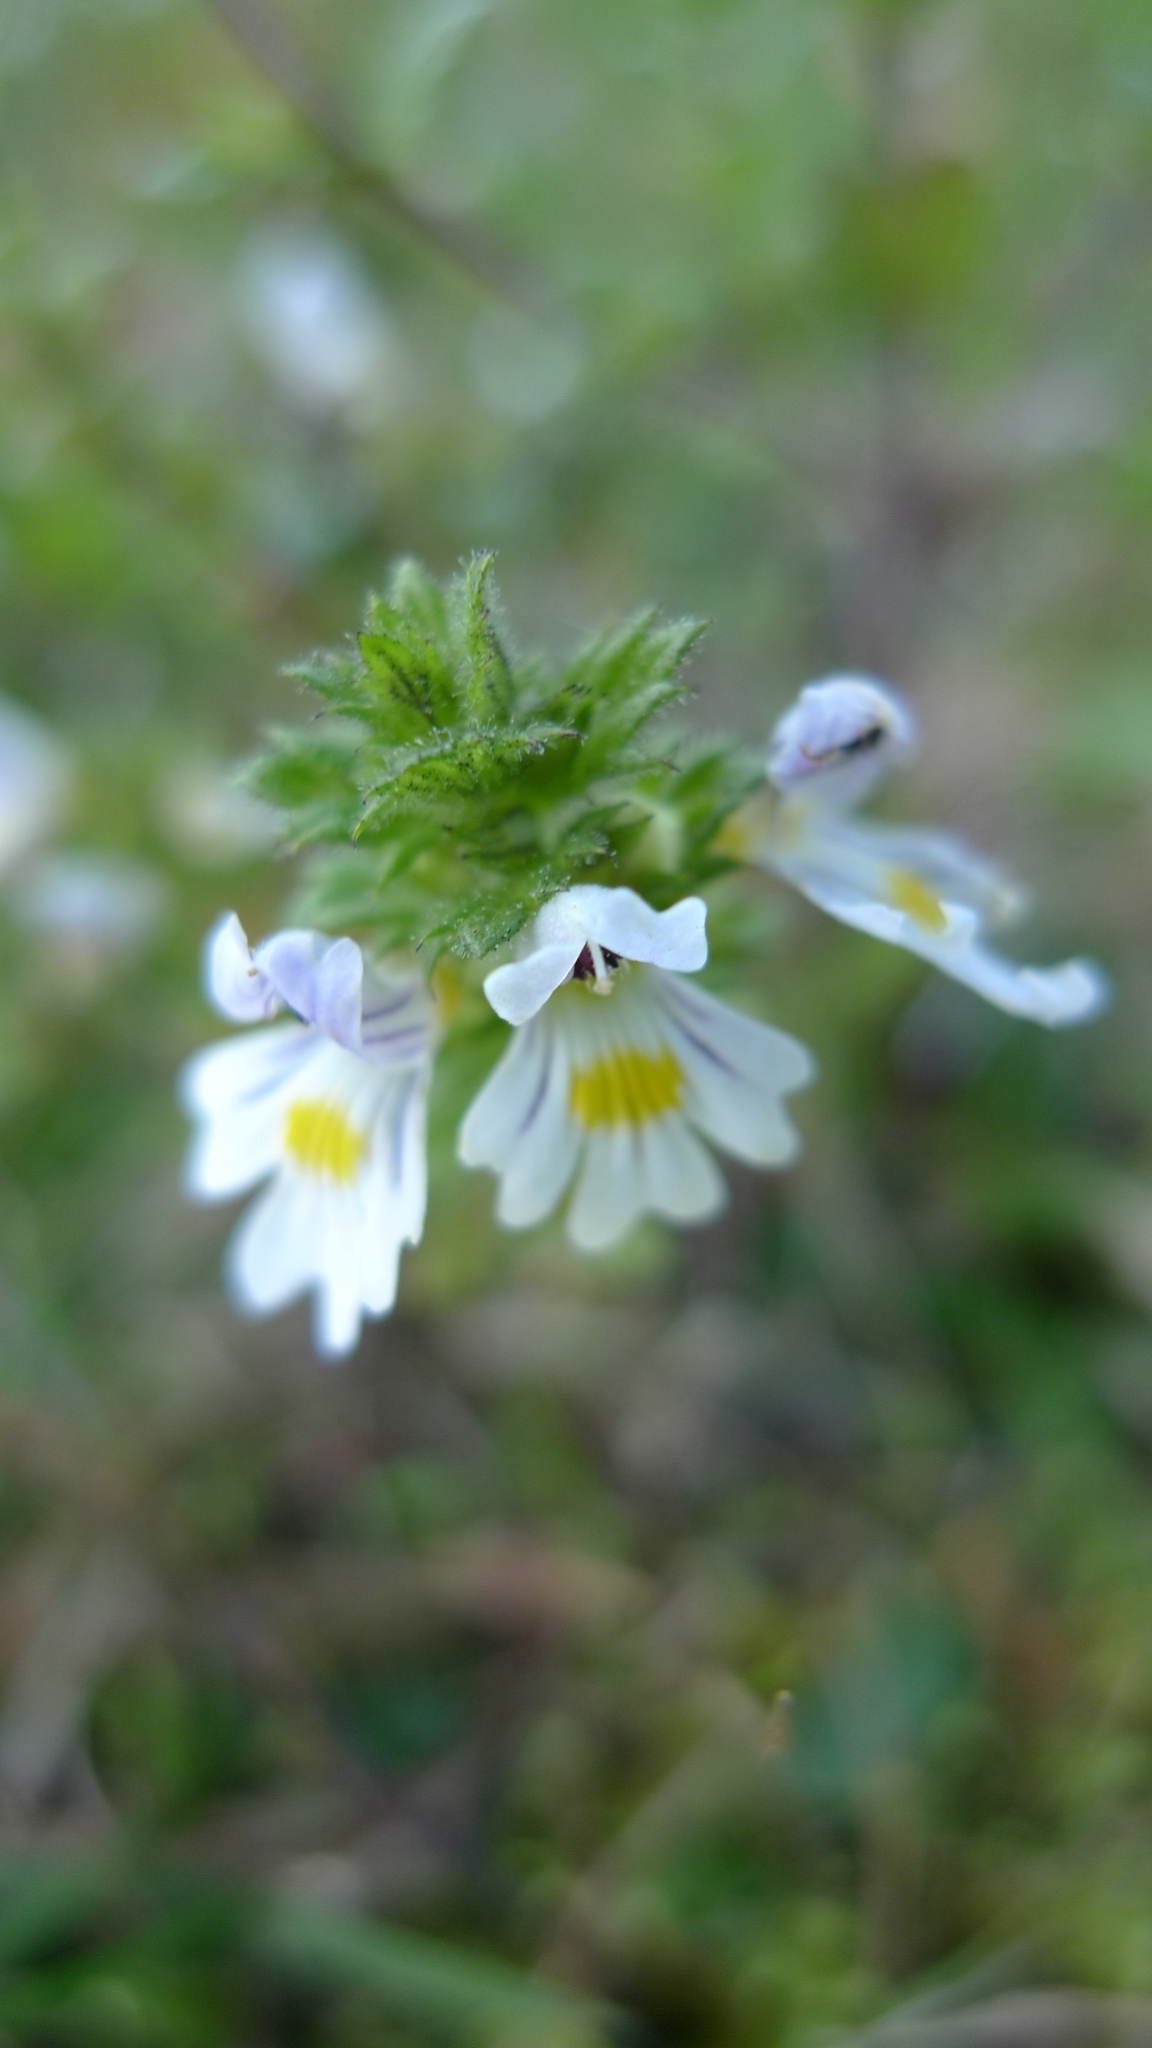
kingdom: Plantae
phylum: Tracheophyta
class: Magnoliopsida
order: Lamiales
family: Orobanchaceae
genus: Euphrasia
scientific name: Euphrasia officinalis
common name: Eyebright
